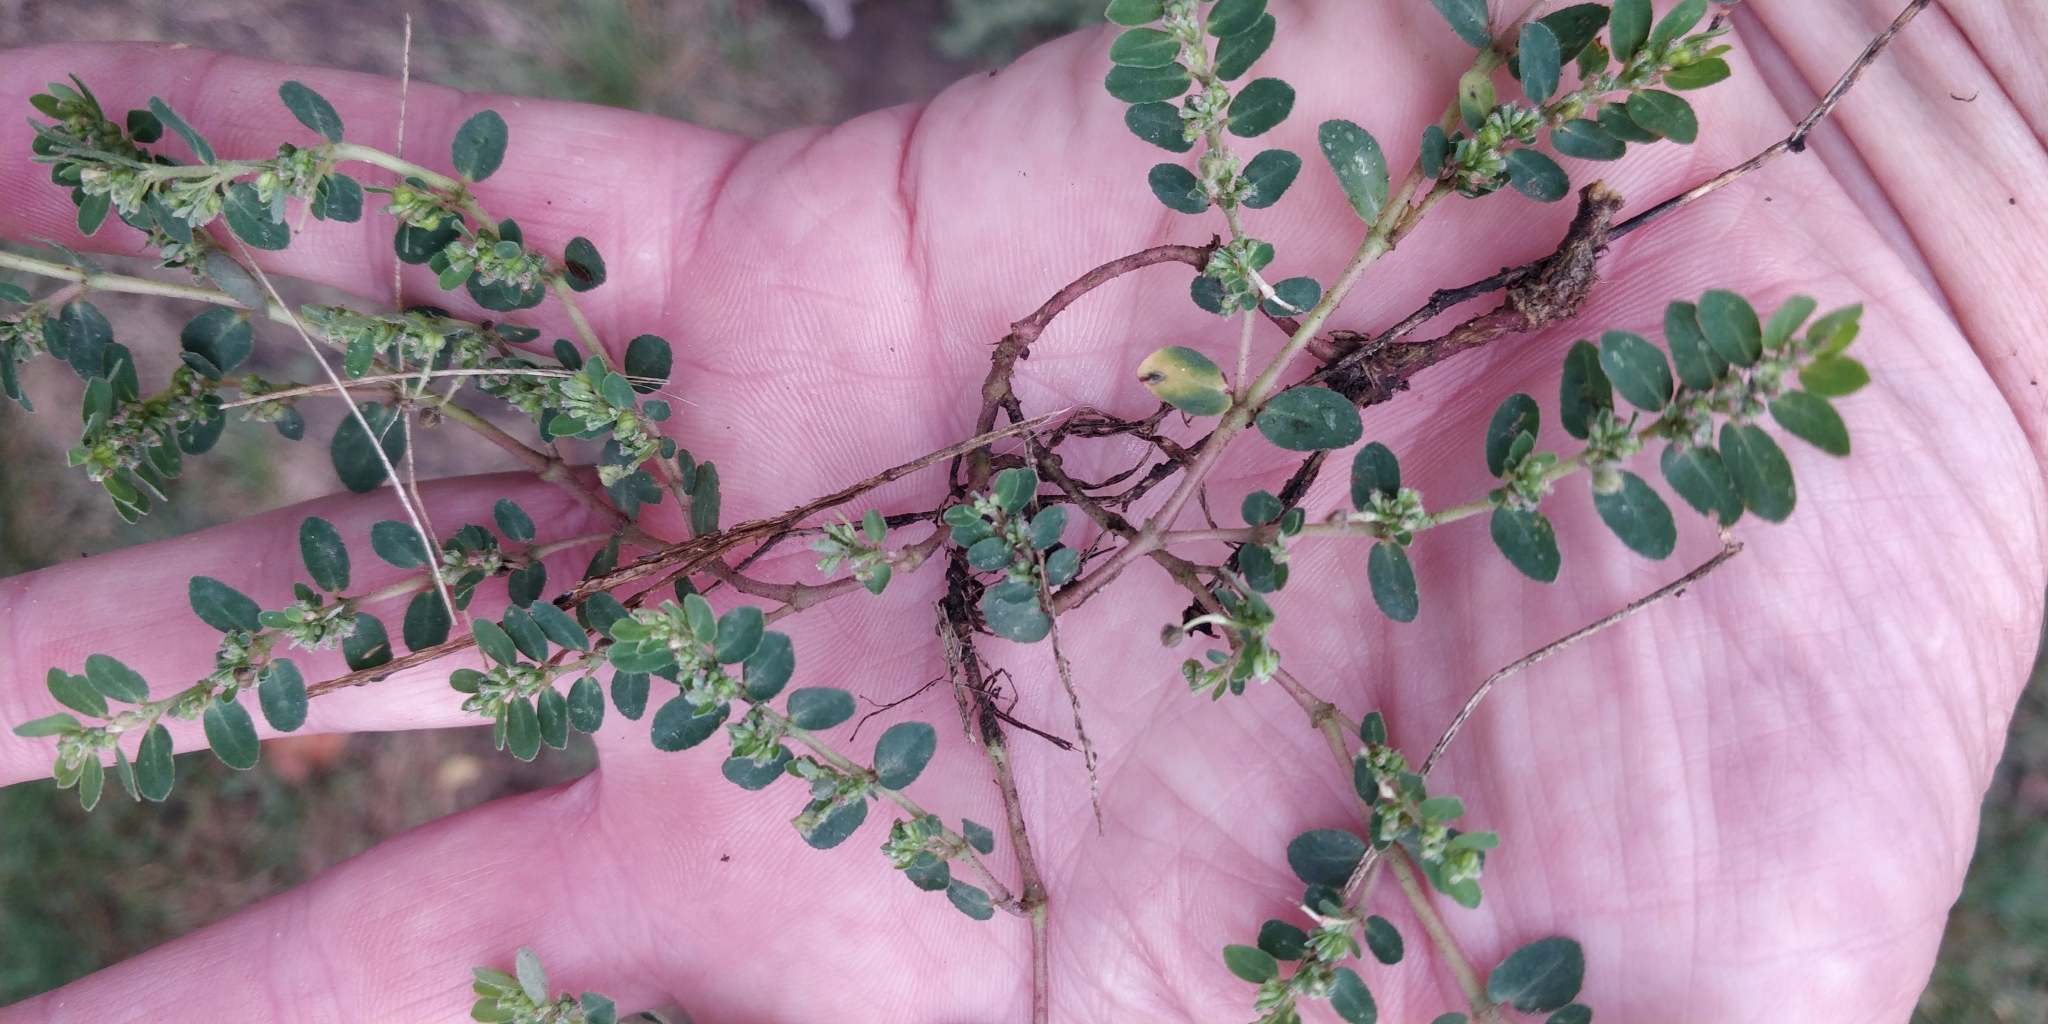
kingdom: Plantae
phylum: Tracheophyta
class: Magnoliopsida
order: Malpighiales
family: Euphorbiaceae
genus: Euphorbia
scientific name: Euphorbia prostrata
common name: Prostrate sandmat
